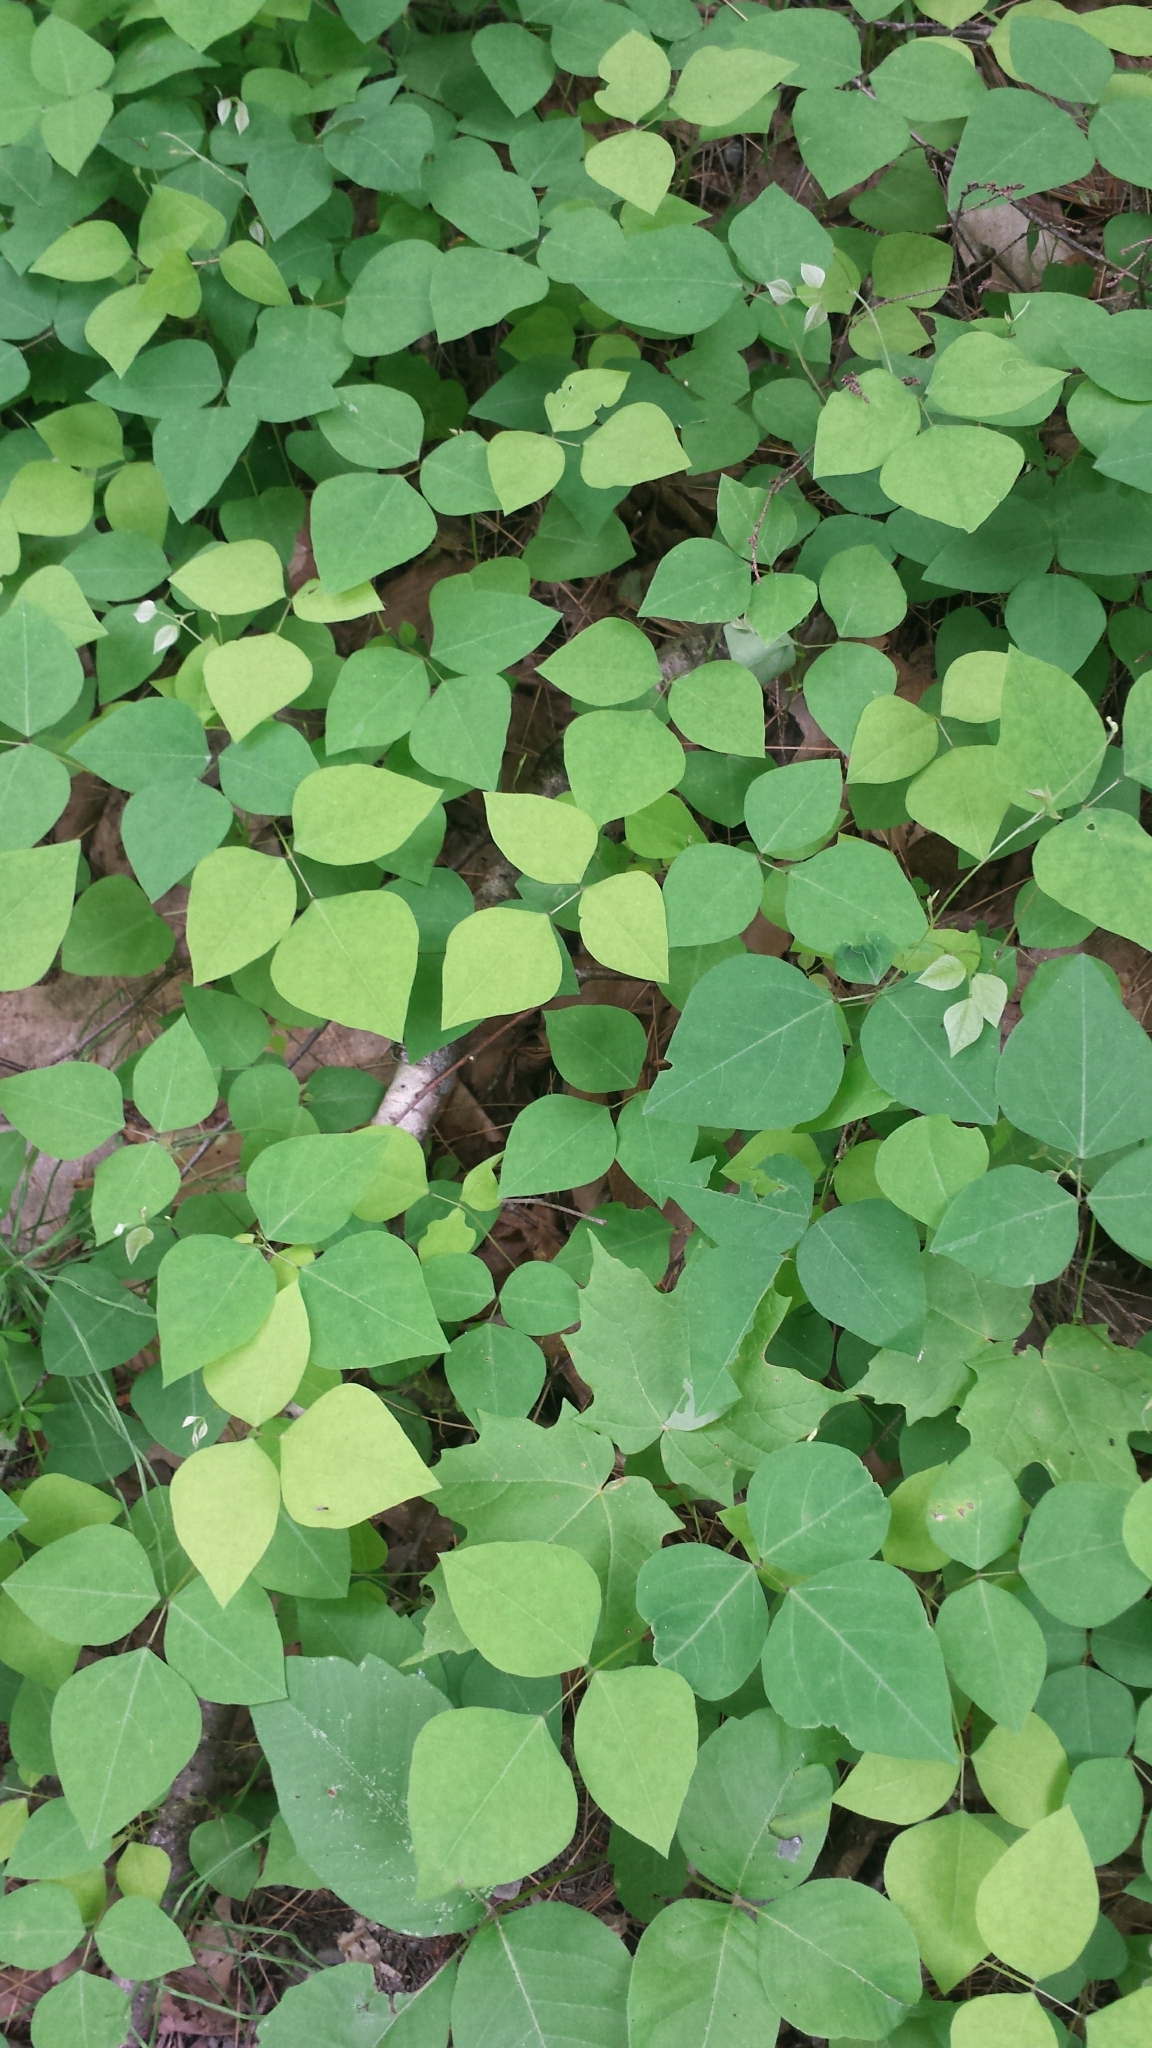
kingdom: Plantae
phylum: Tracheophyta
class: Magnoliopsida
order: Fabales
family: Fabaceae
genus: Amphicarpaea
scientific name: Amphicarpaea bracteata
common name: American hog peanut
